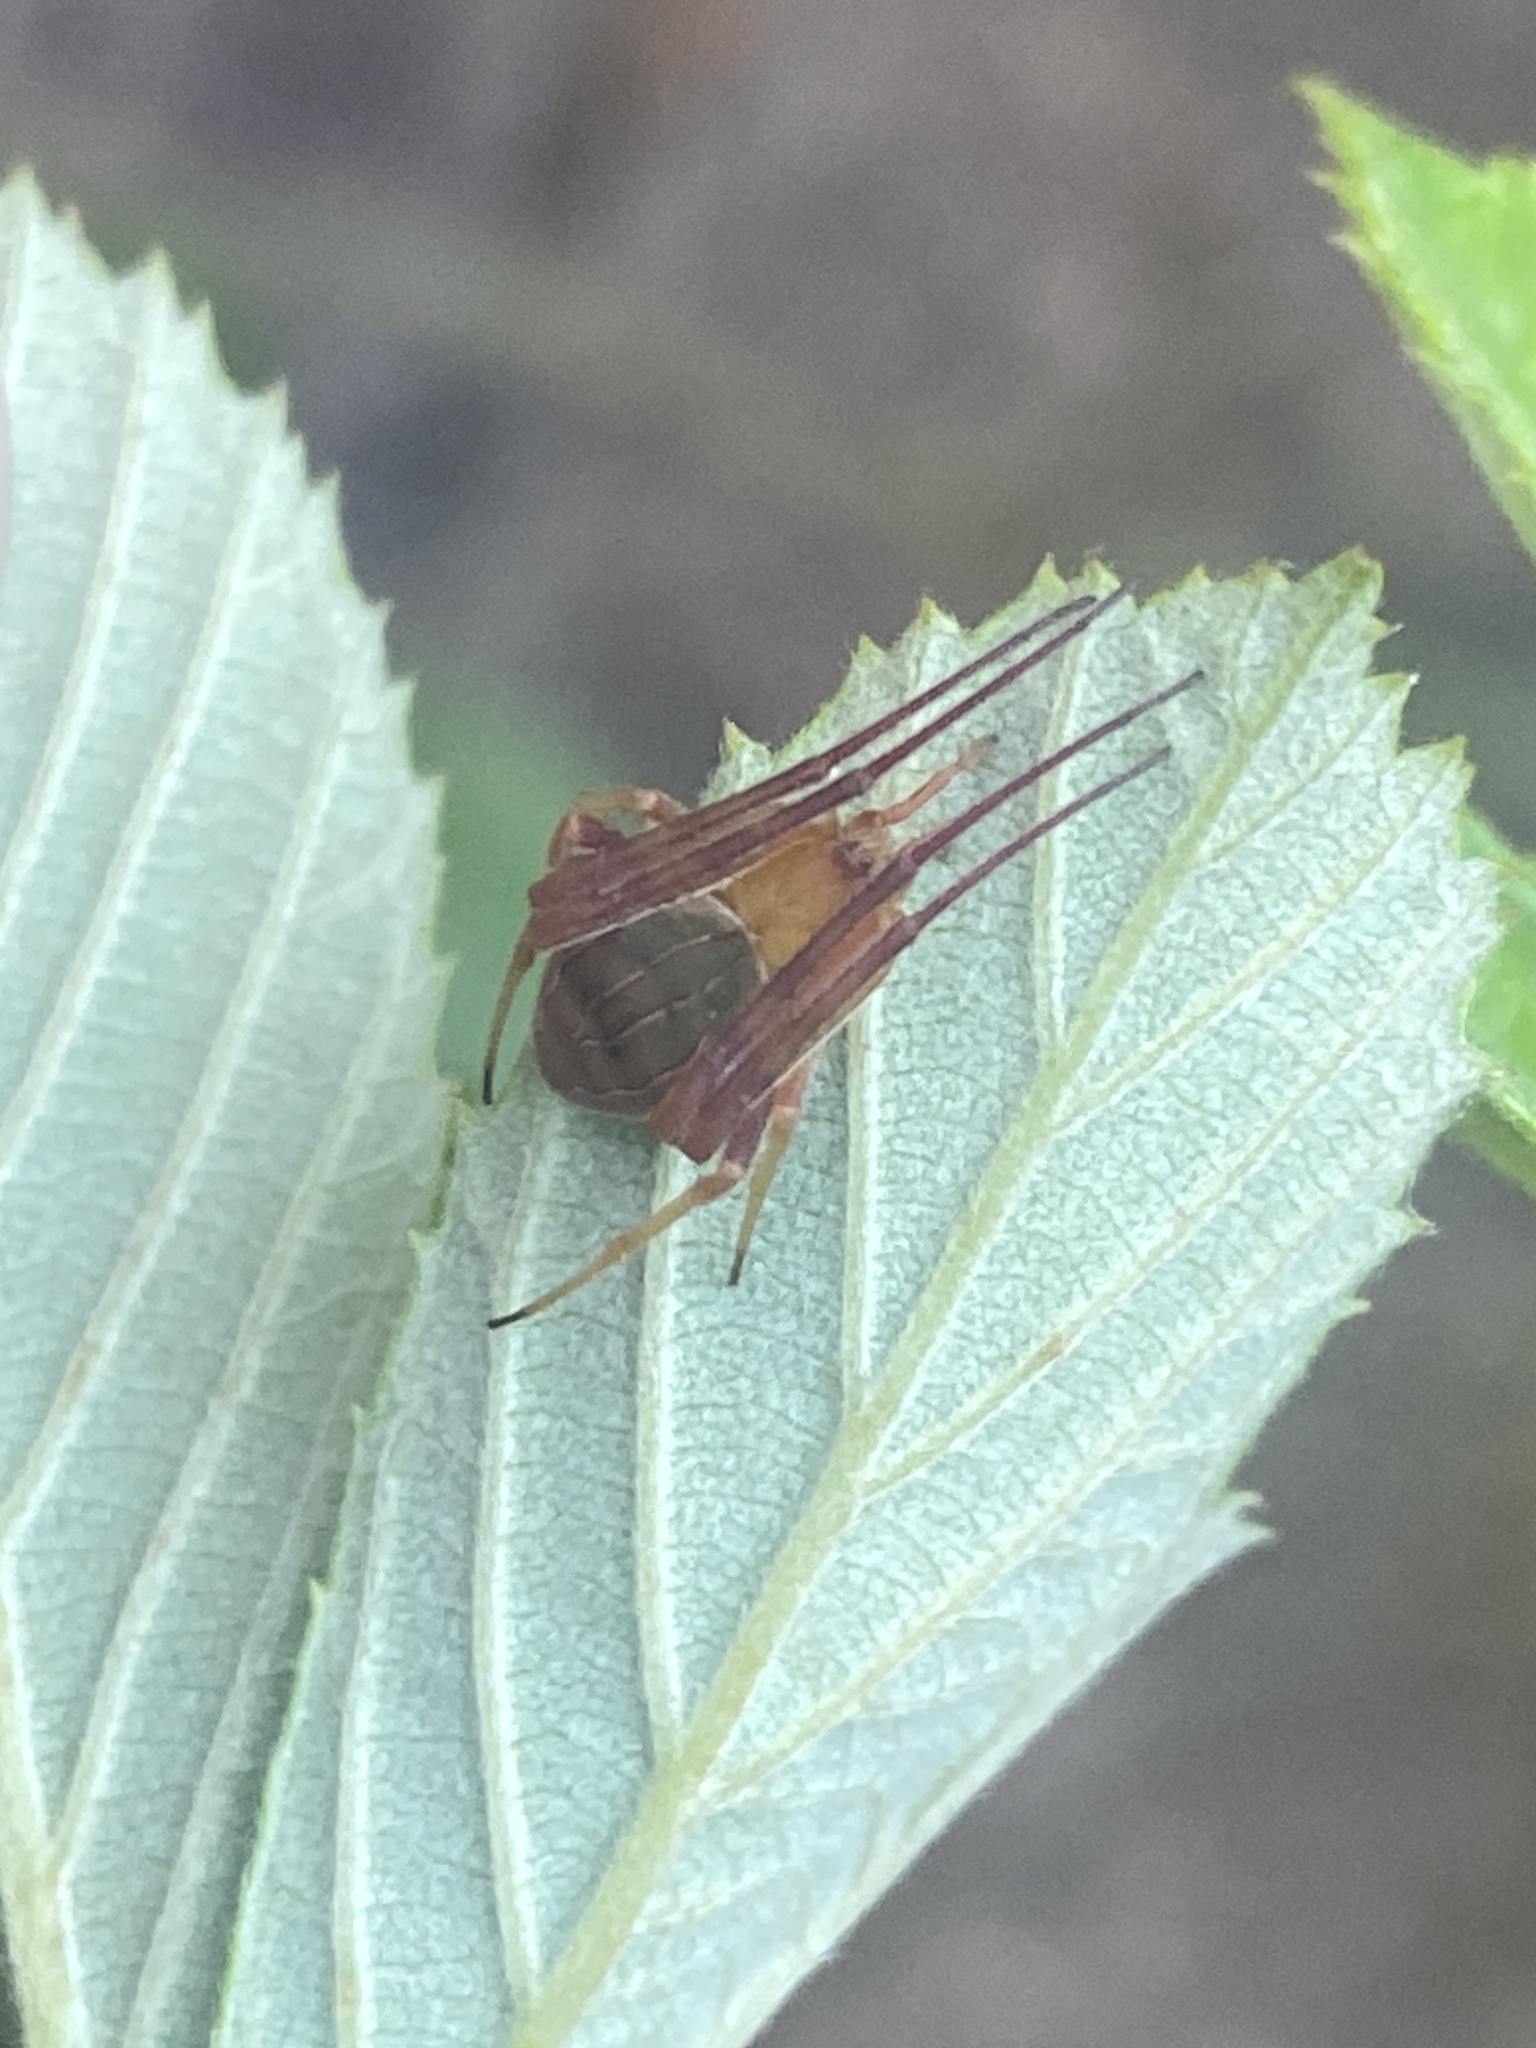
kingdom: Animalia
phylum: Arthropoda
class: Arachnida
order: Araneae
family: Araneidae
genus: Acacesia
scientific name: Acacesia hamata
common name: Orb weavers
